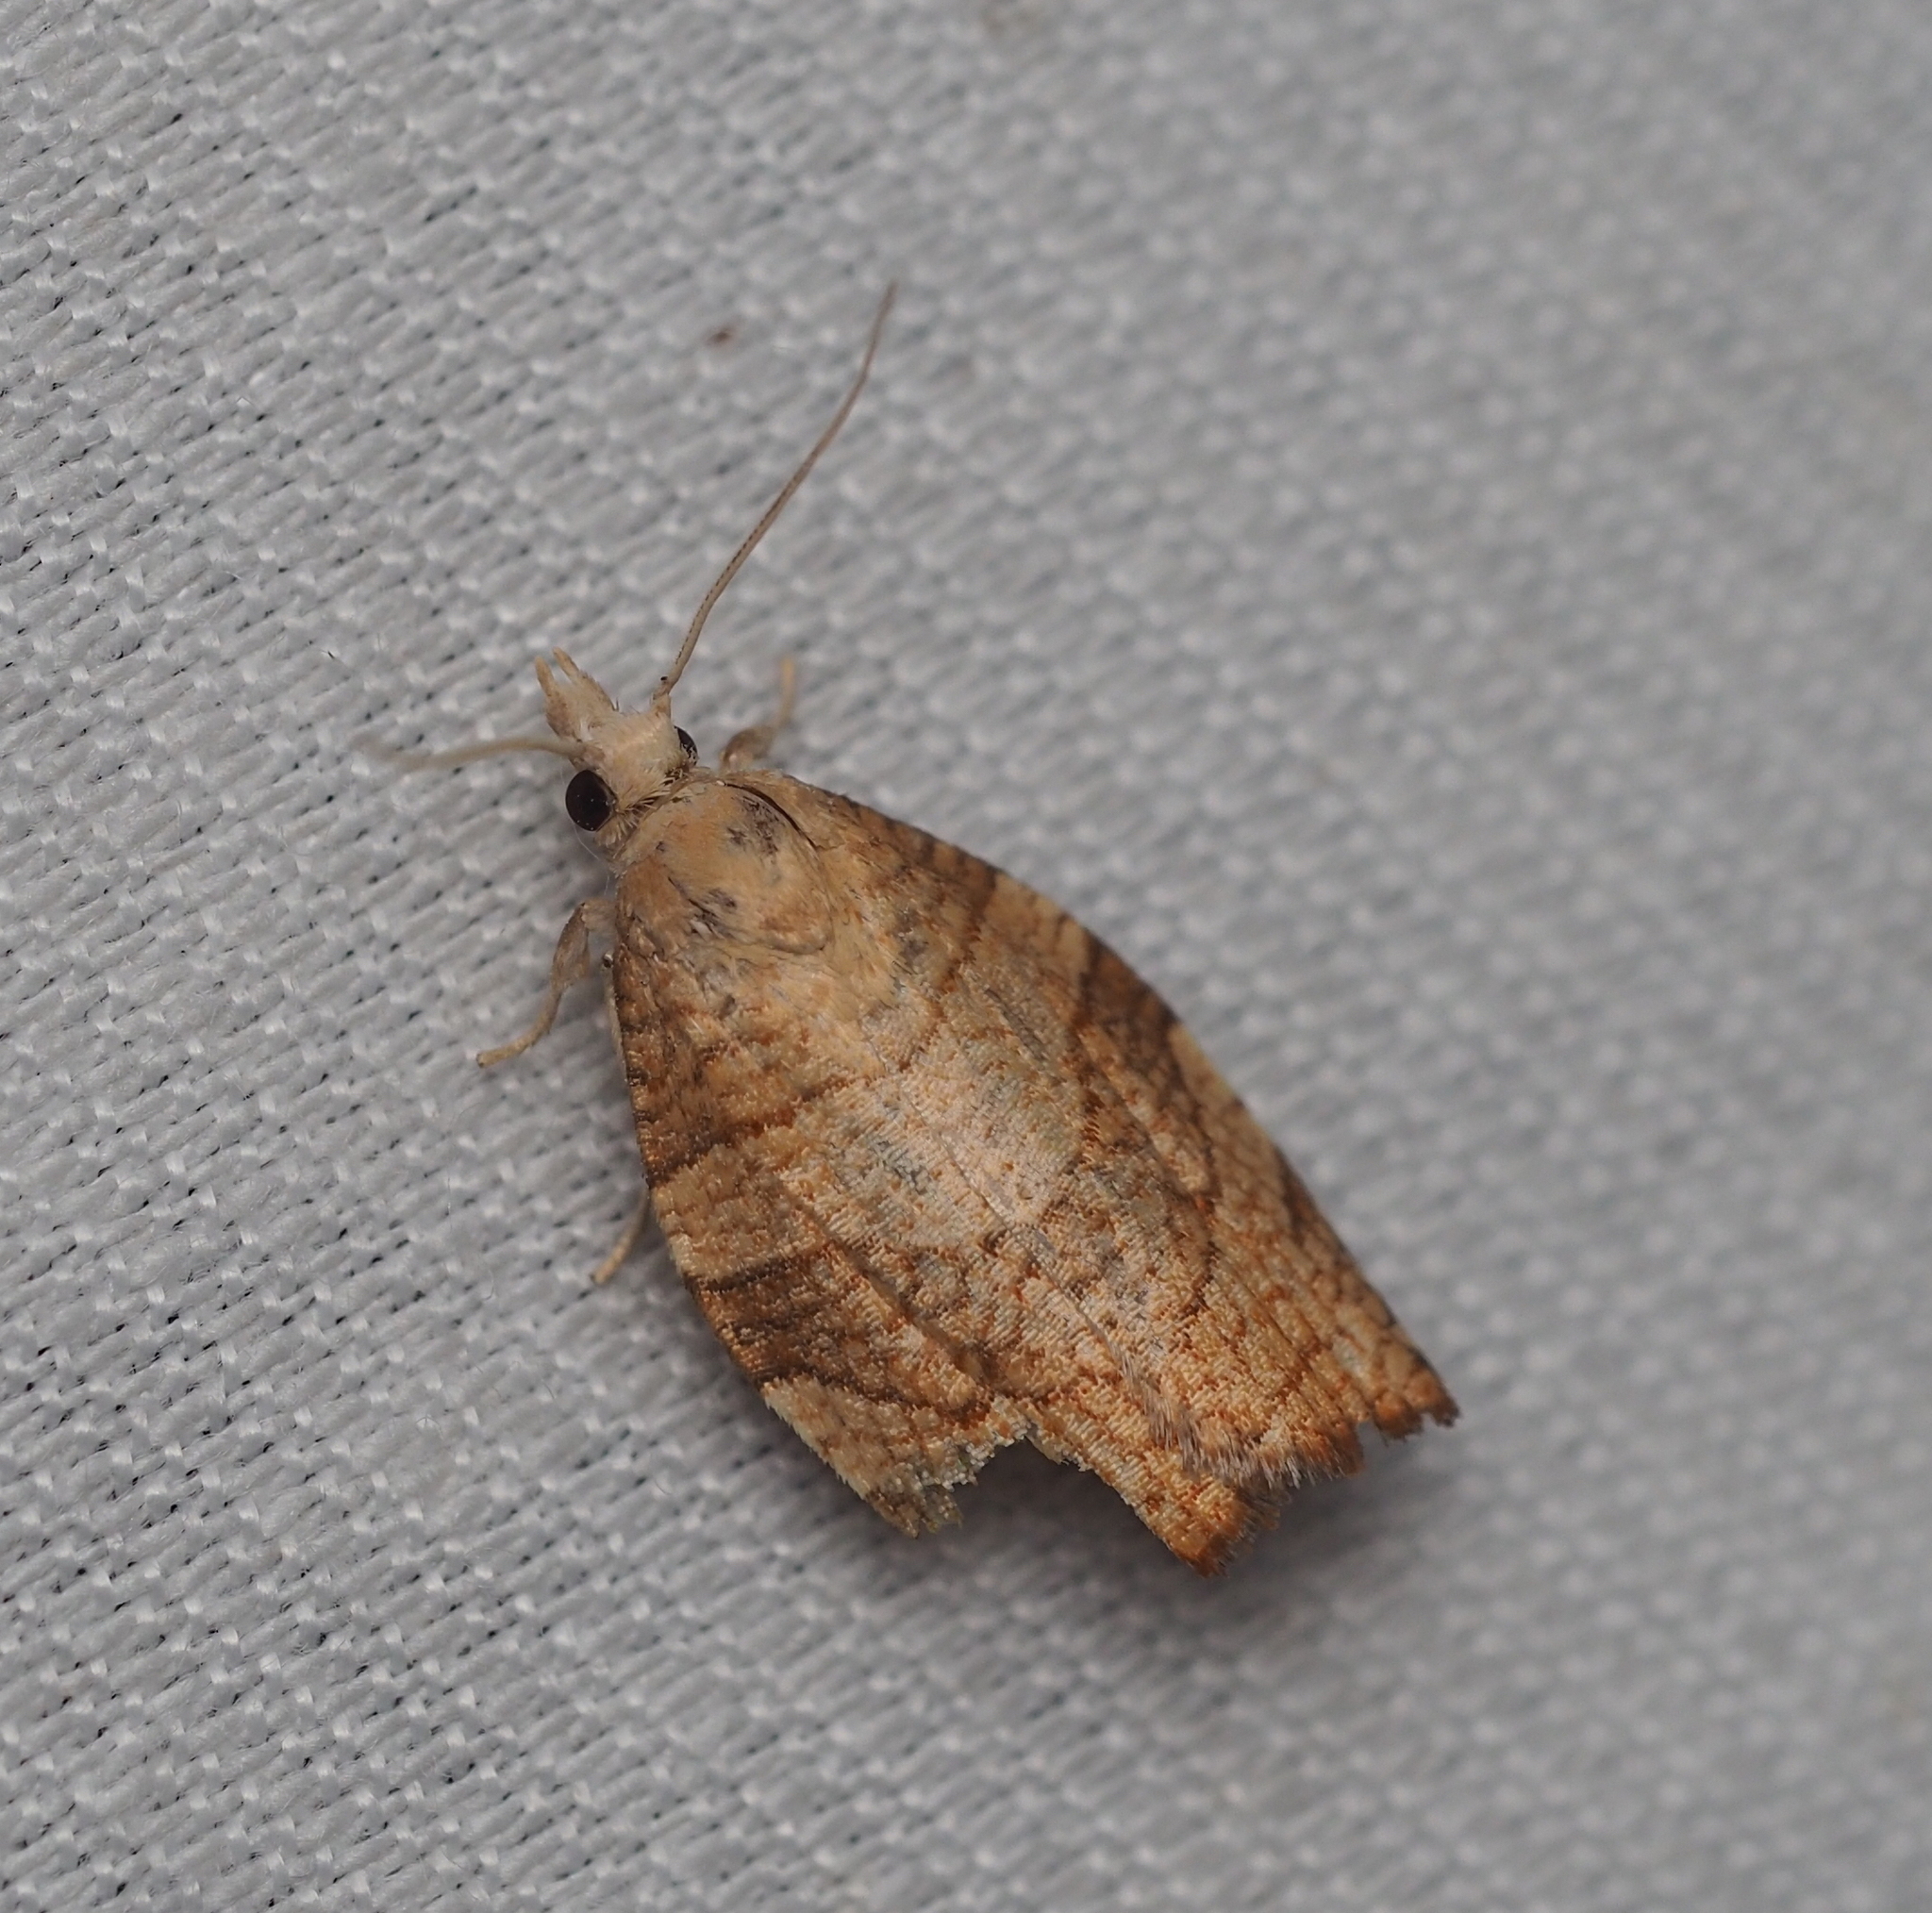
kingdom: Animalia
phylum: Arthropoda
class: Insecta
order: Lepidoptera
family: Tortricidae
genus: Pandemis
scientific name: Pandemis corylana
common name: Chequered fruit-tree tortrix
